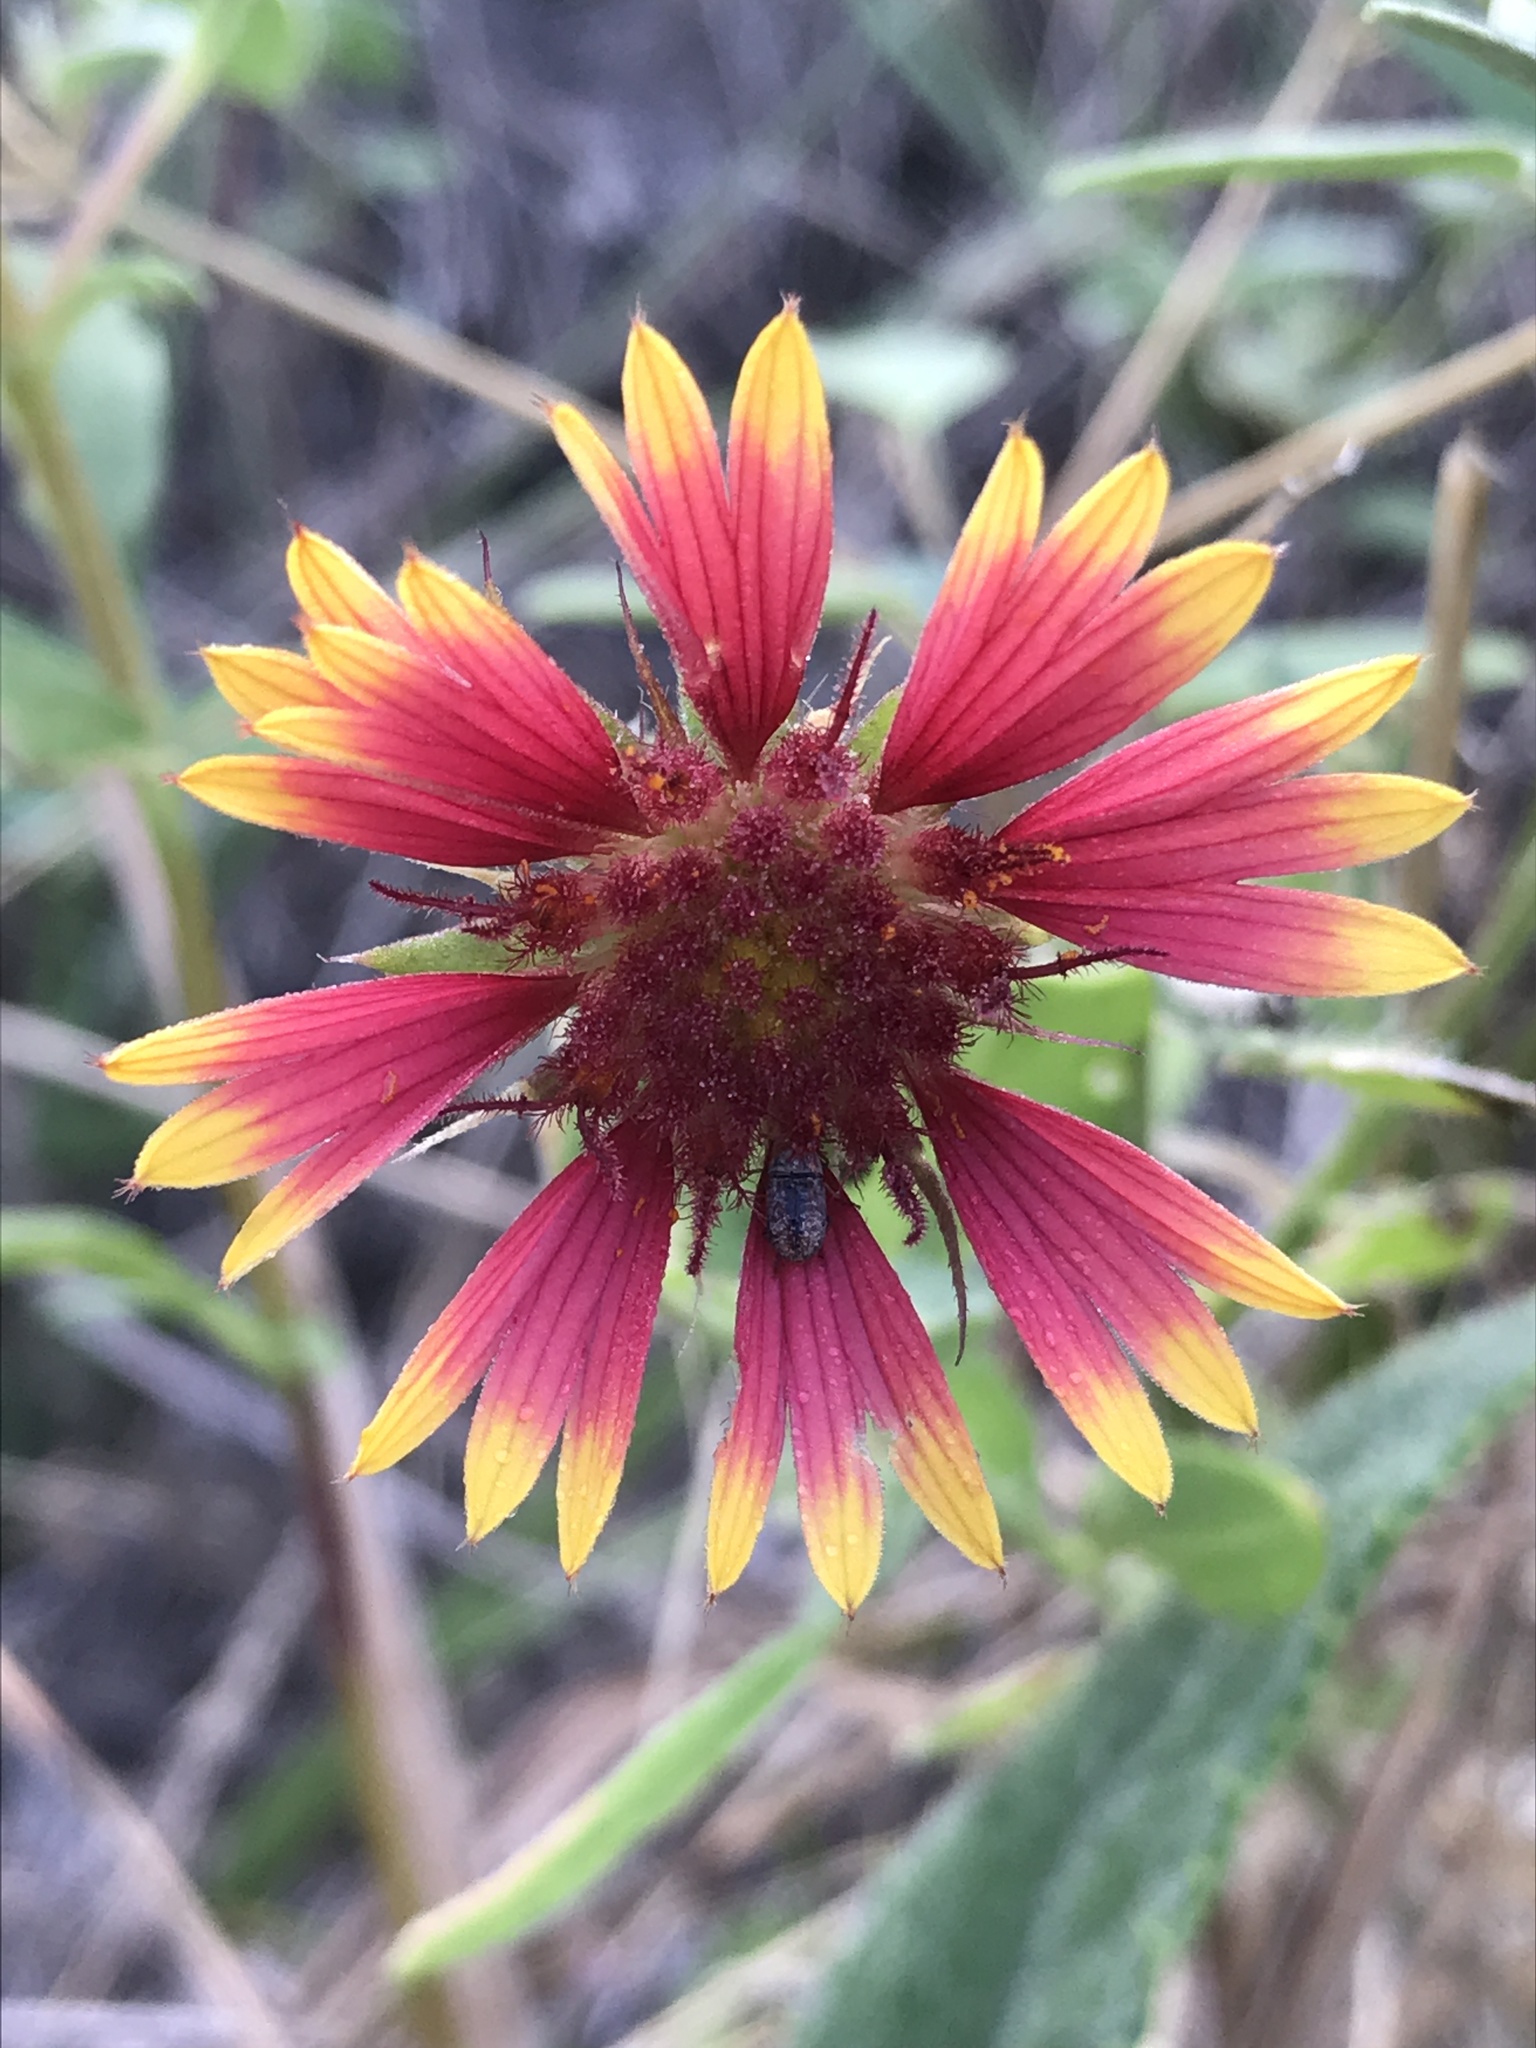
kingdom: Plantae
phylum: Tracheophyta
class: Magnoliopsida
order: Asterales
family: Asteraceae
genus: Gaillardia
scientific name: Gaillardia pulchella
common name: Firewheel
